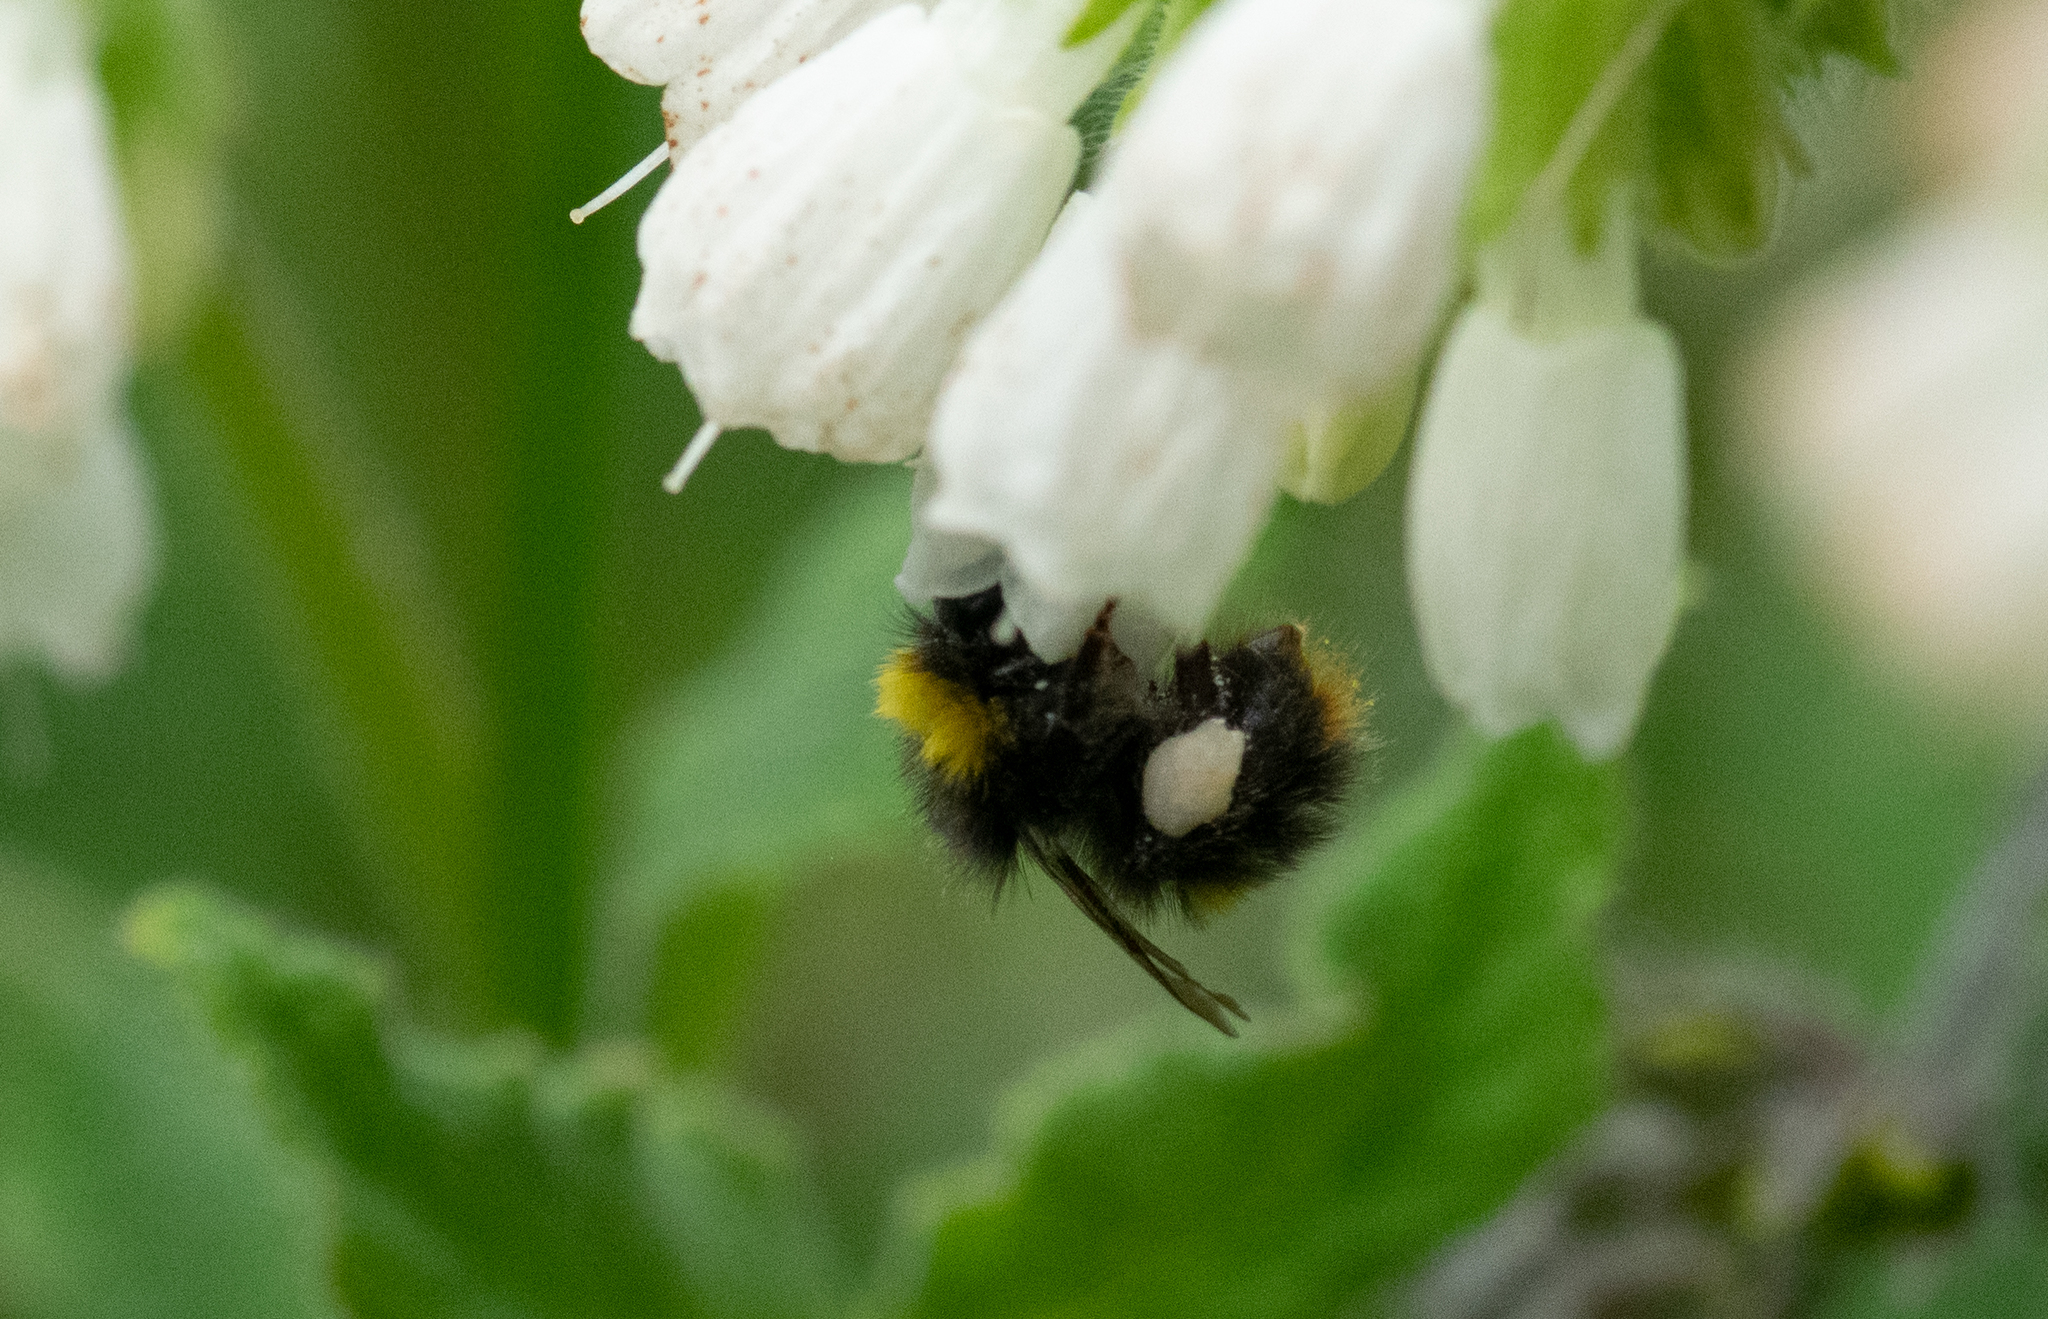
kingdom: Animalia
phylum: Arthropoda
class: Insecta
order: Hymenoptera
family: Apidae
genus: Bombus
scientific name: Bombus pratorum
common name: Early humble-bee
